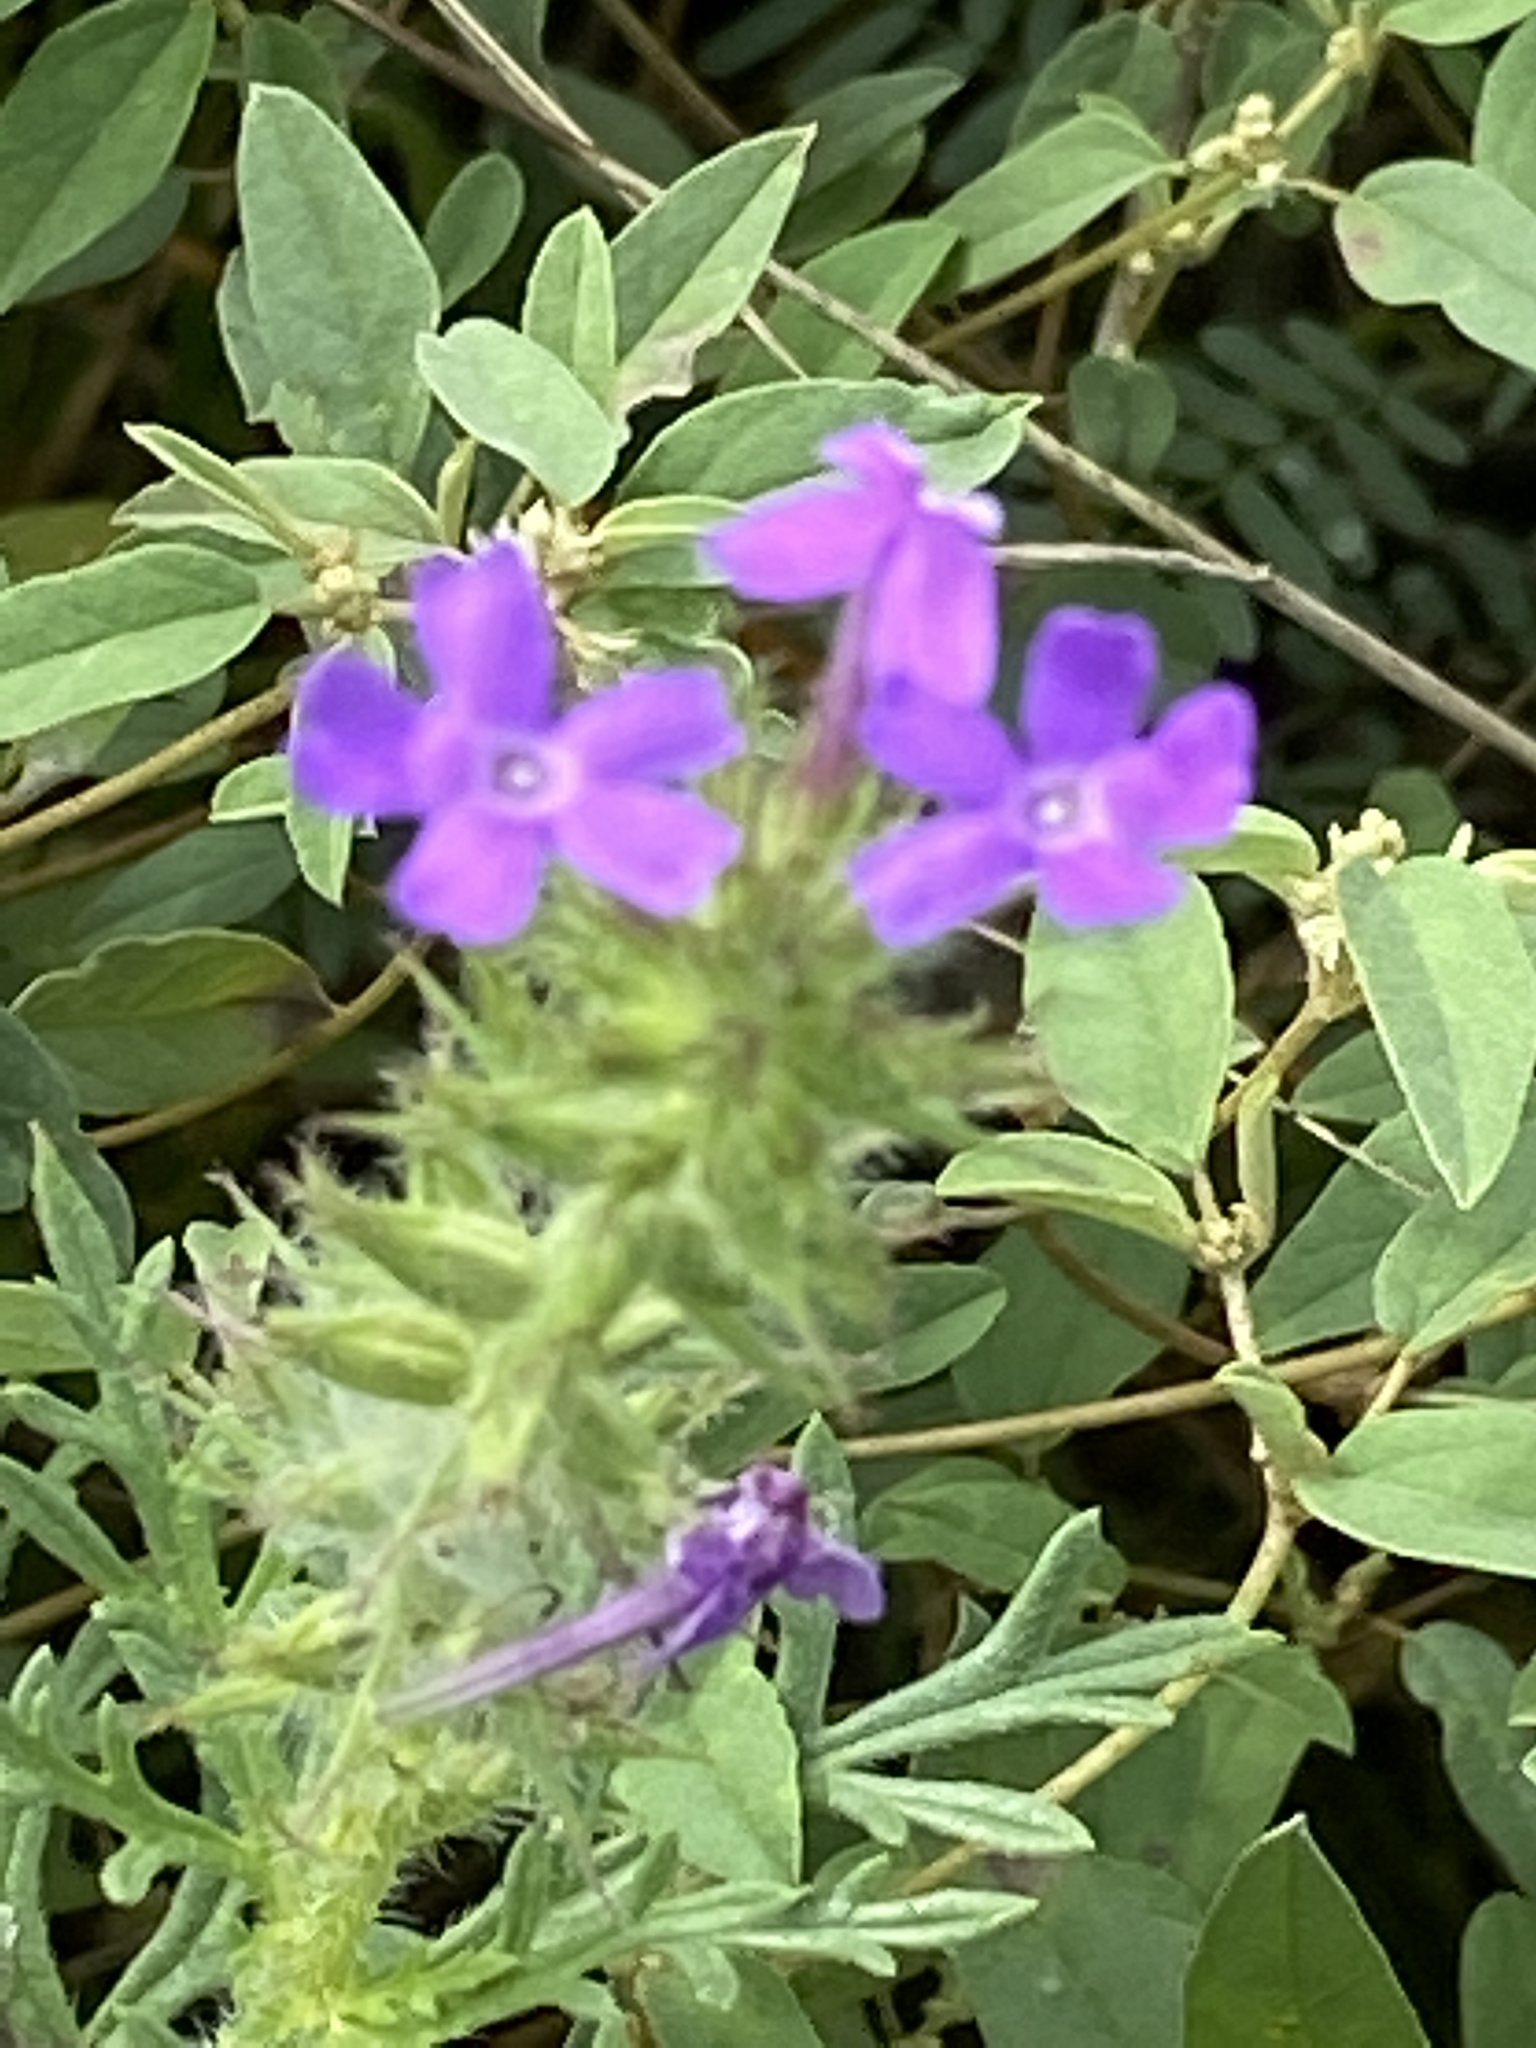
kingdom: Plantae
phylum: Tracheophyta
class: Magnoliopsida
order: Lamiales
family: Verbenaceae
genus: Verbena
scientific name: Verbena bipinnatifida
